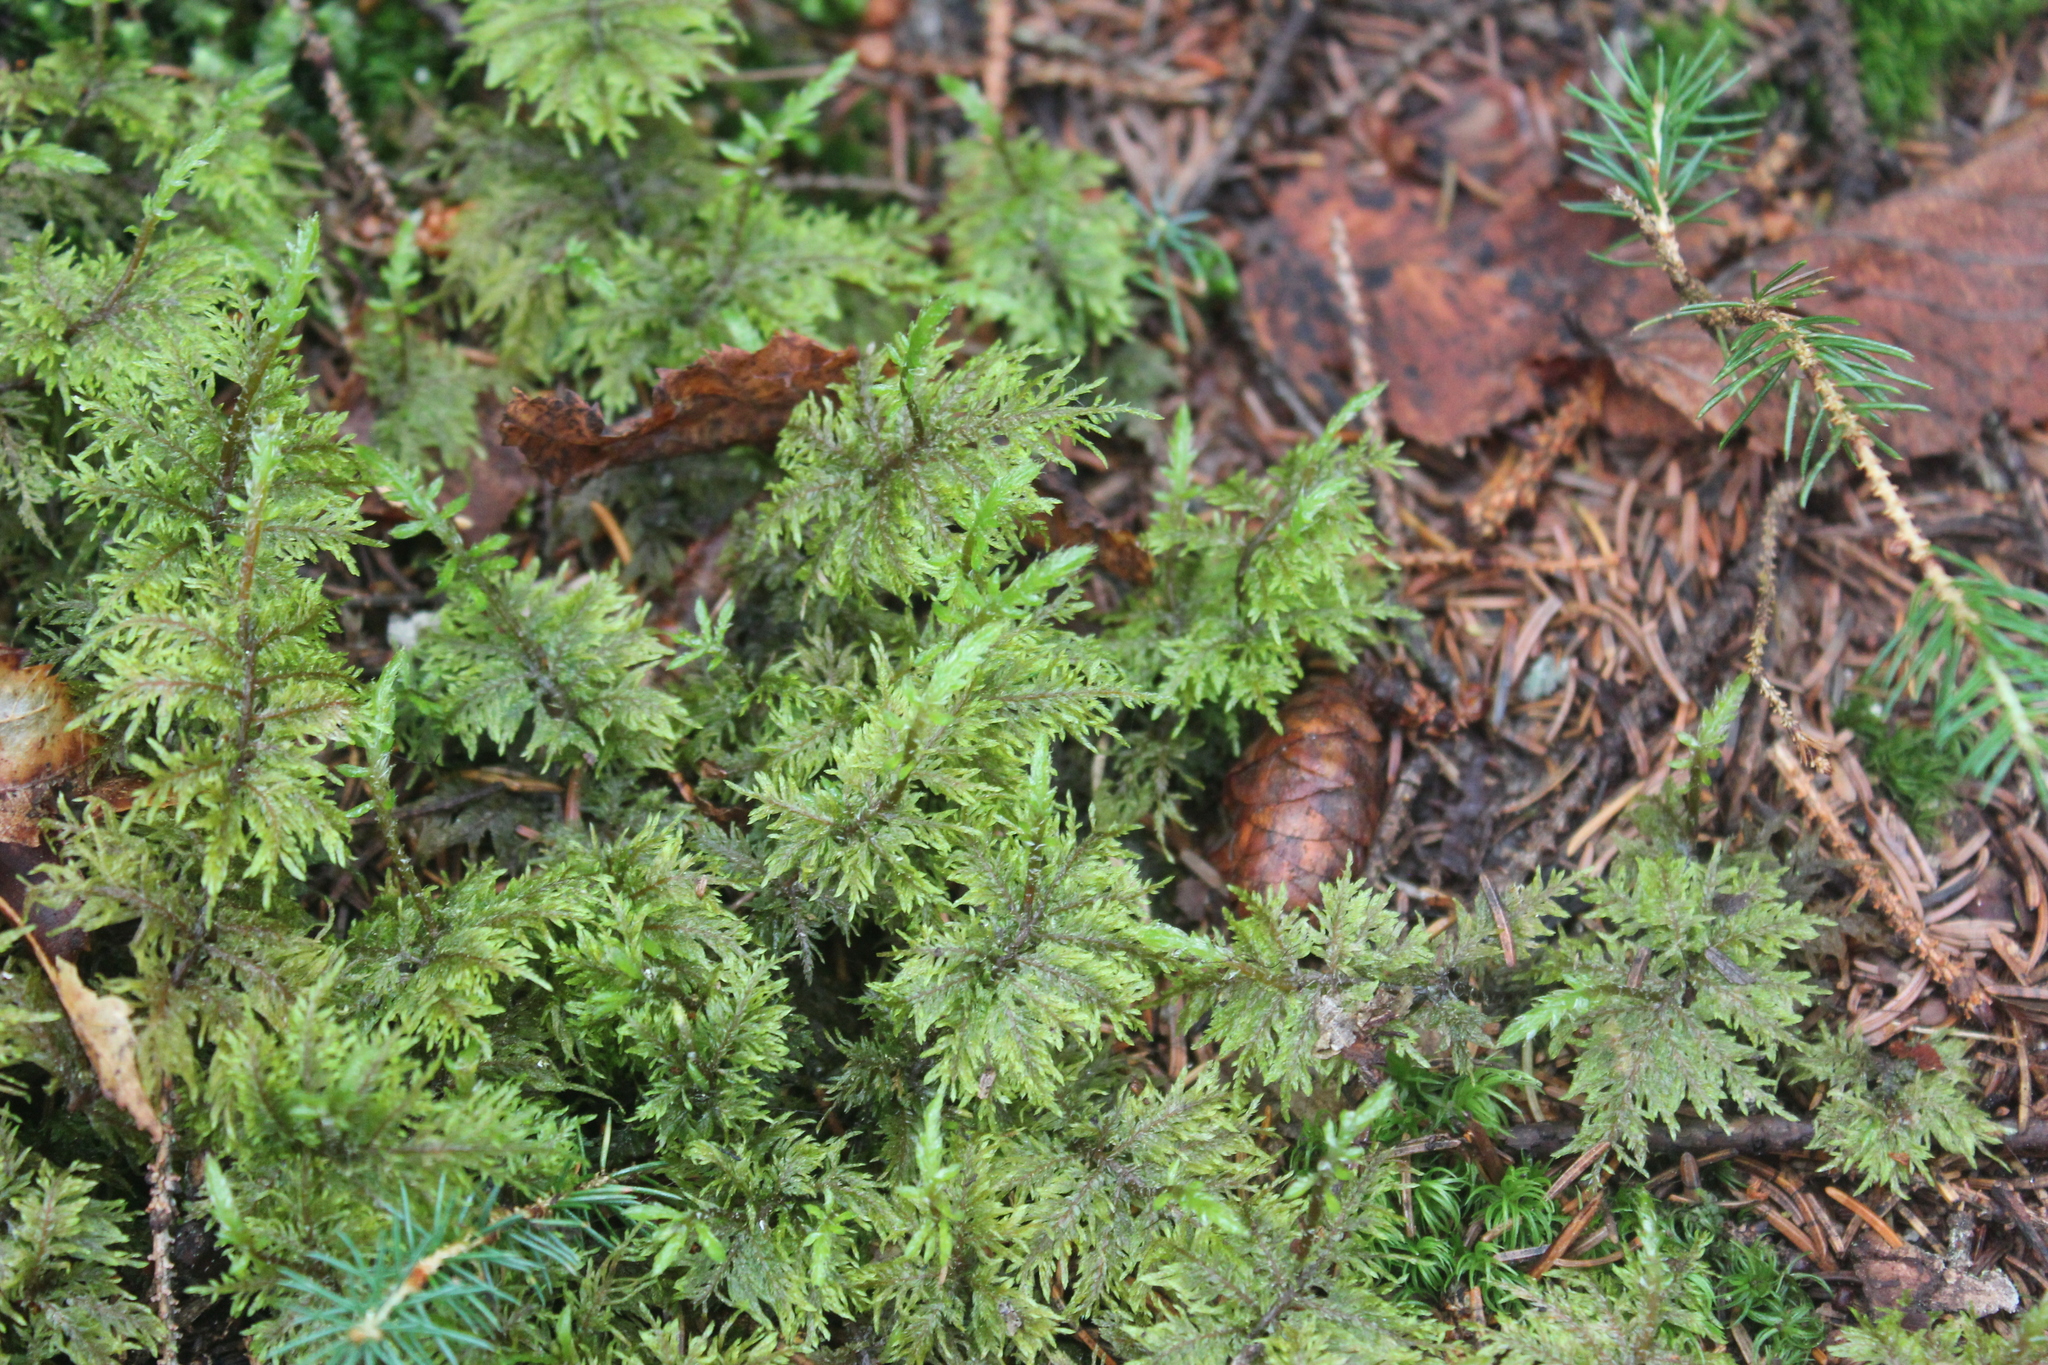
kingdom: Plantae
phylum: Bryophyta
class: Bryopsida
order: Hypnales
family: Hylocomiaceae
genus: Hylocomium
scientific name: Hylocomium splendens
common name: Stairstep moss
